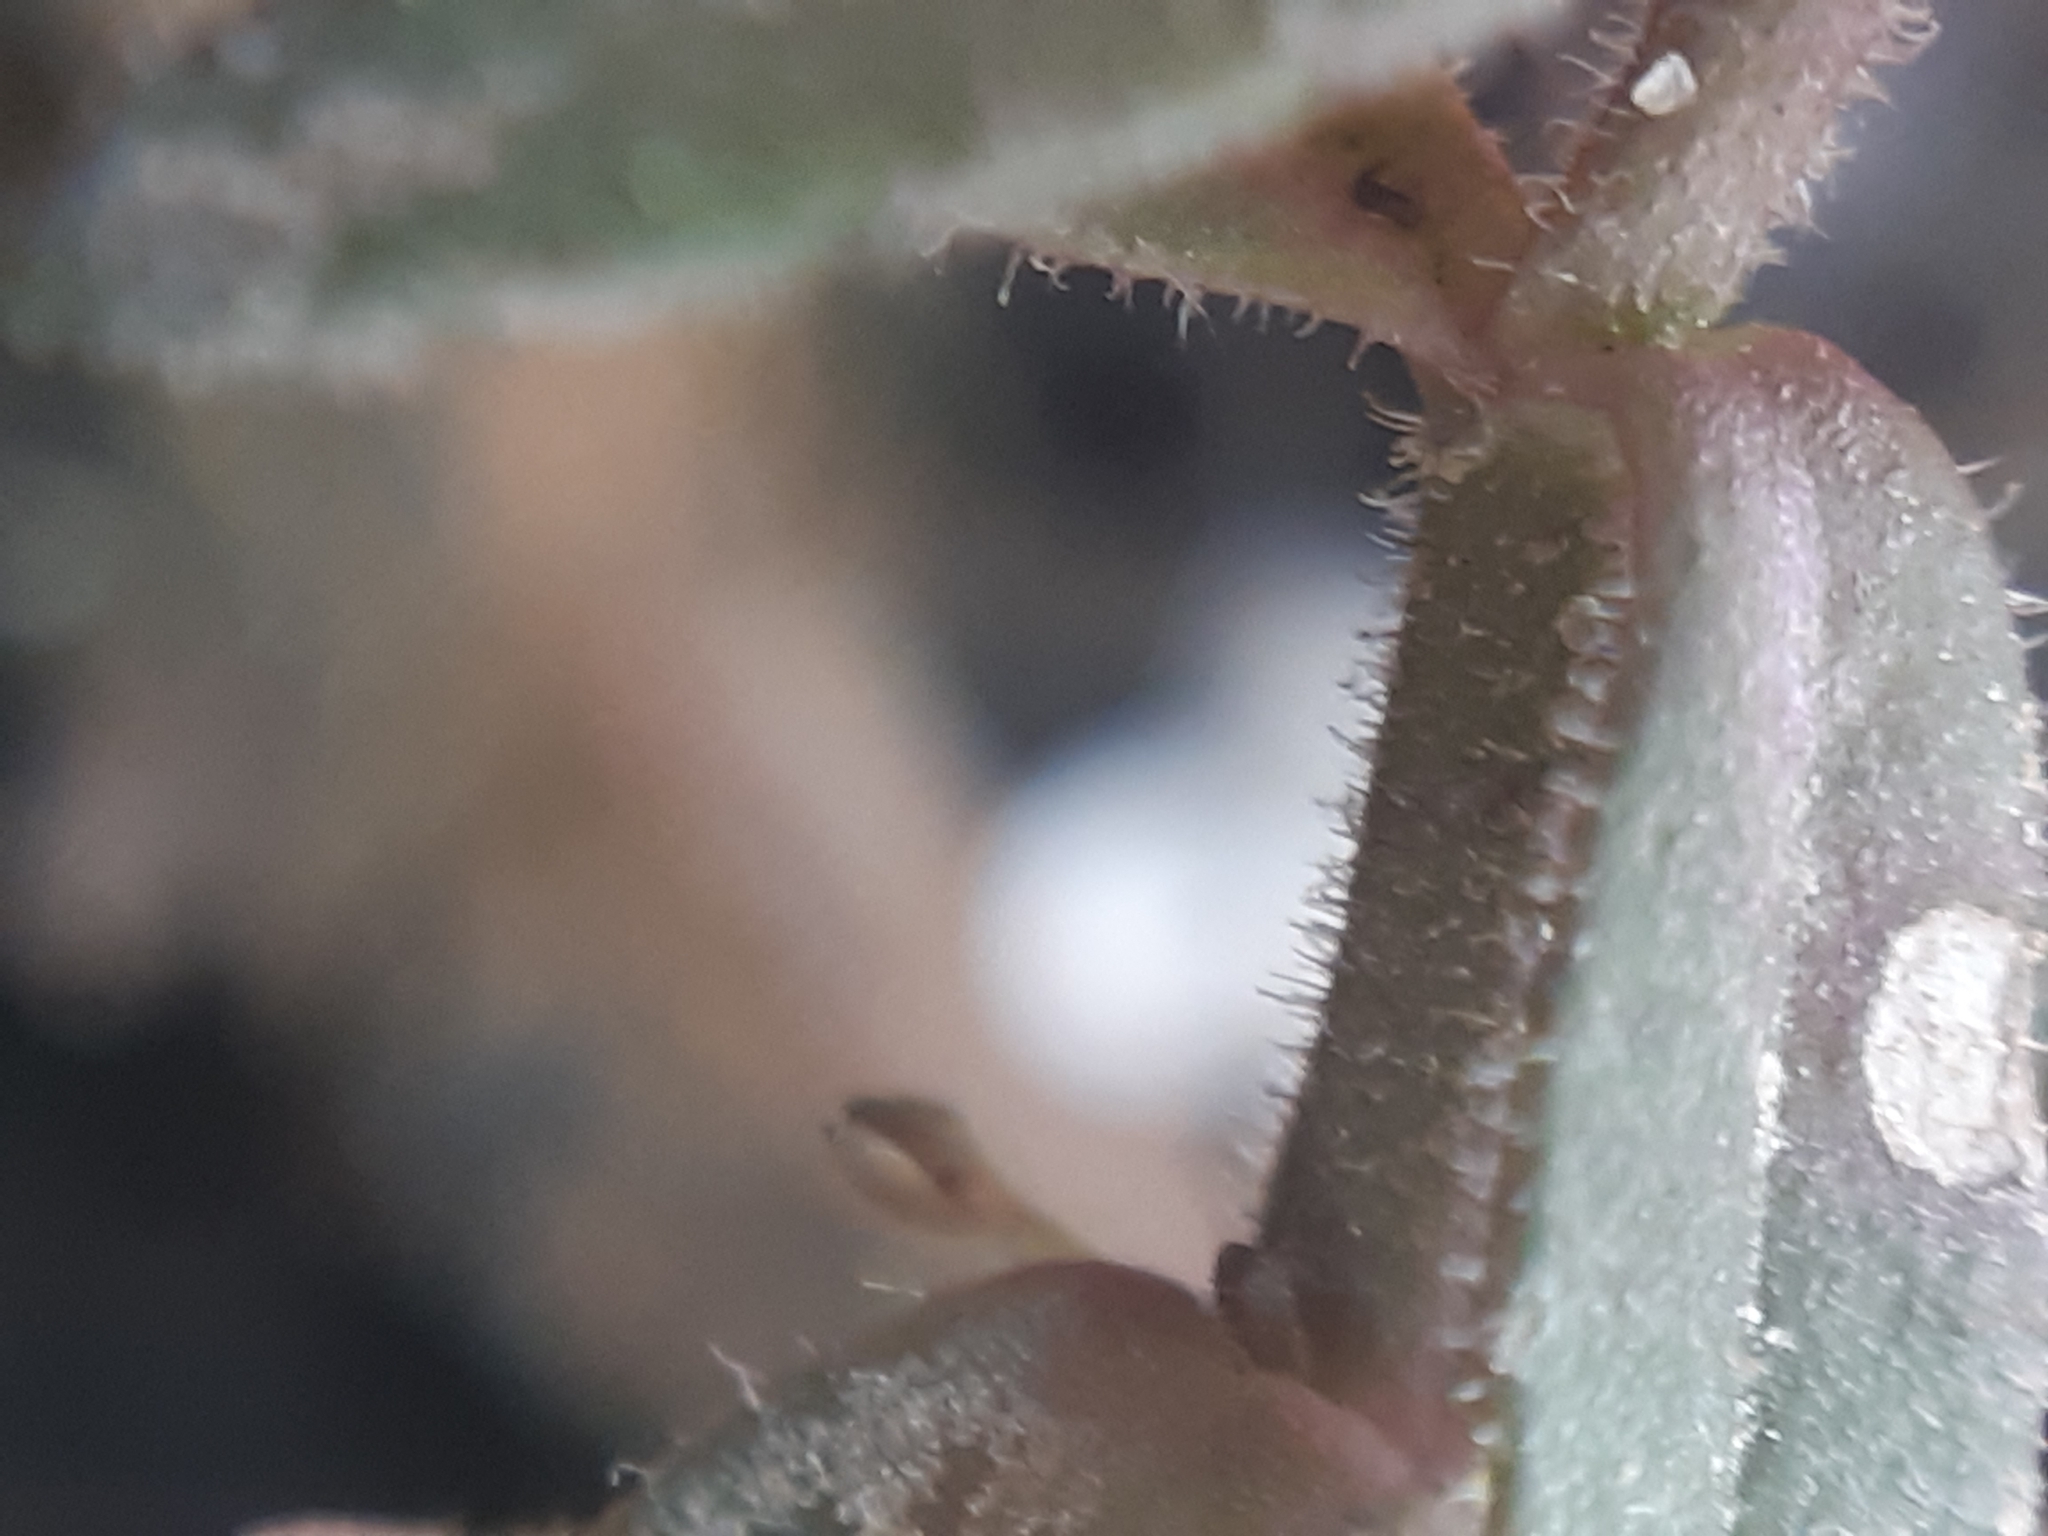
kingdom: Plantae
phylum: Tracheophyta
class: Magnoliopsida
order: Lamiales
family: Plantaginaceae
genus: Veronica
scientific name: Veronica scutellata
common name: Marsh speedwell
